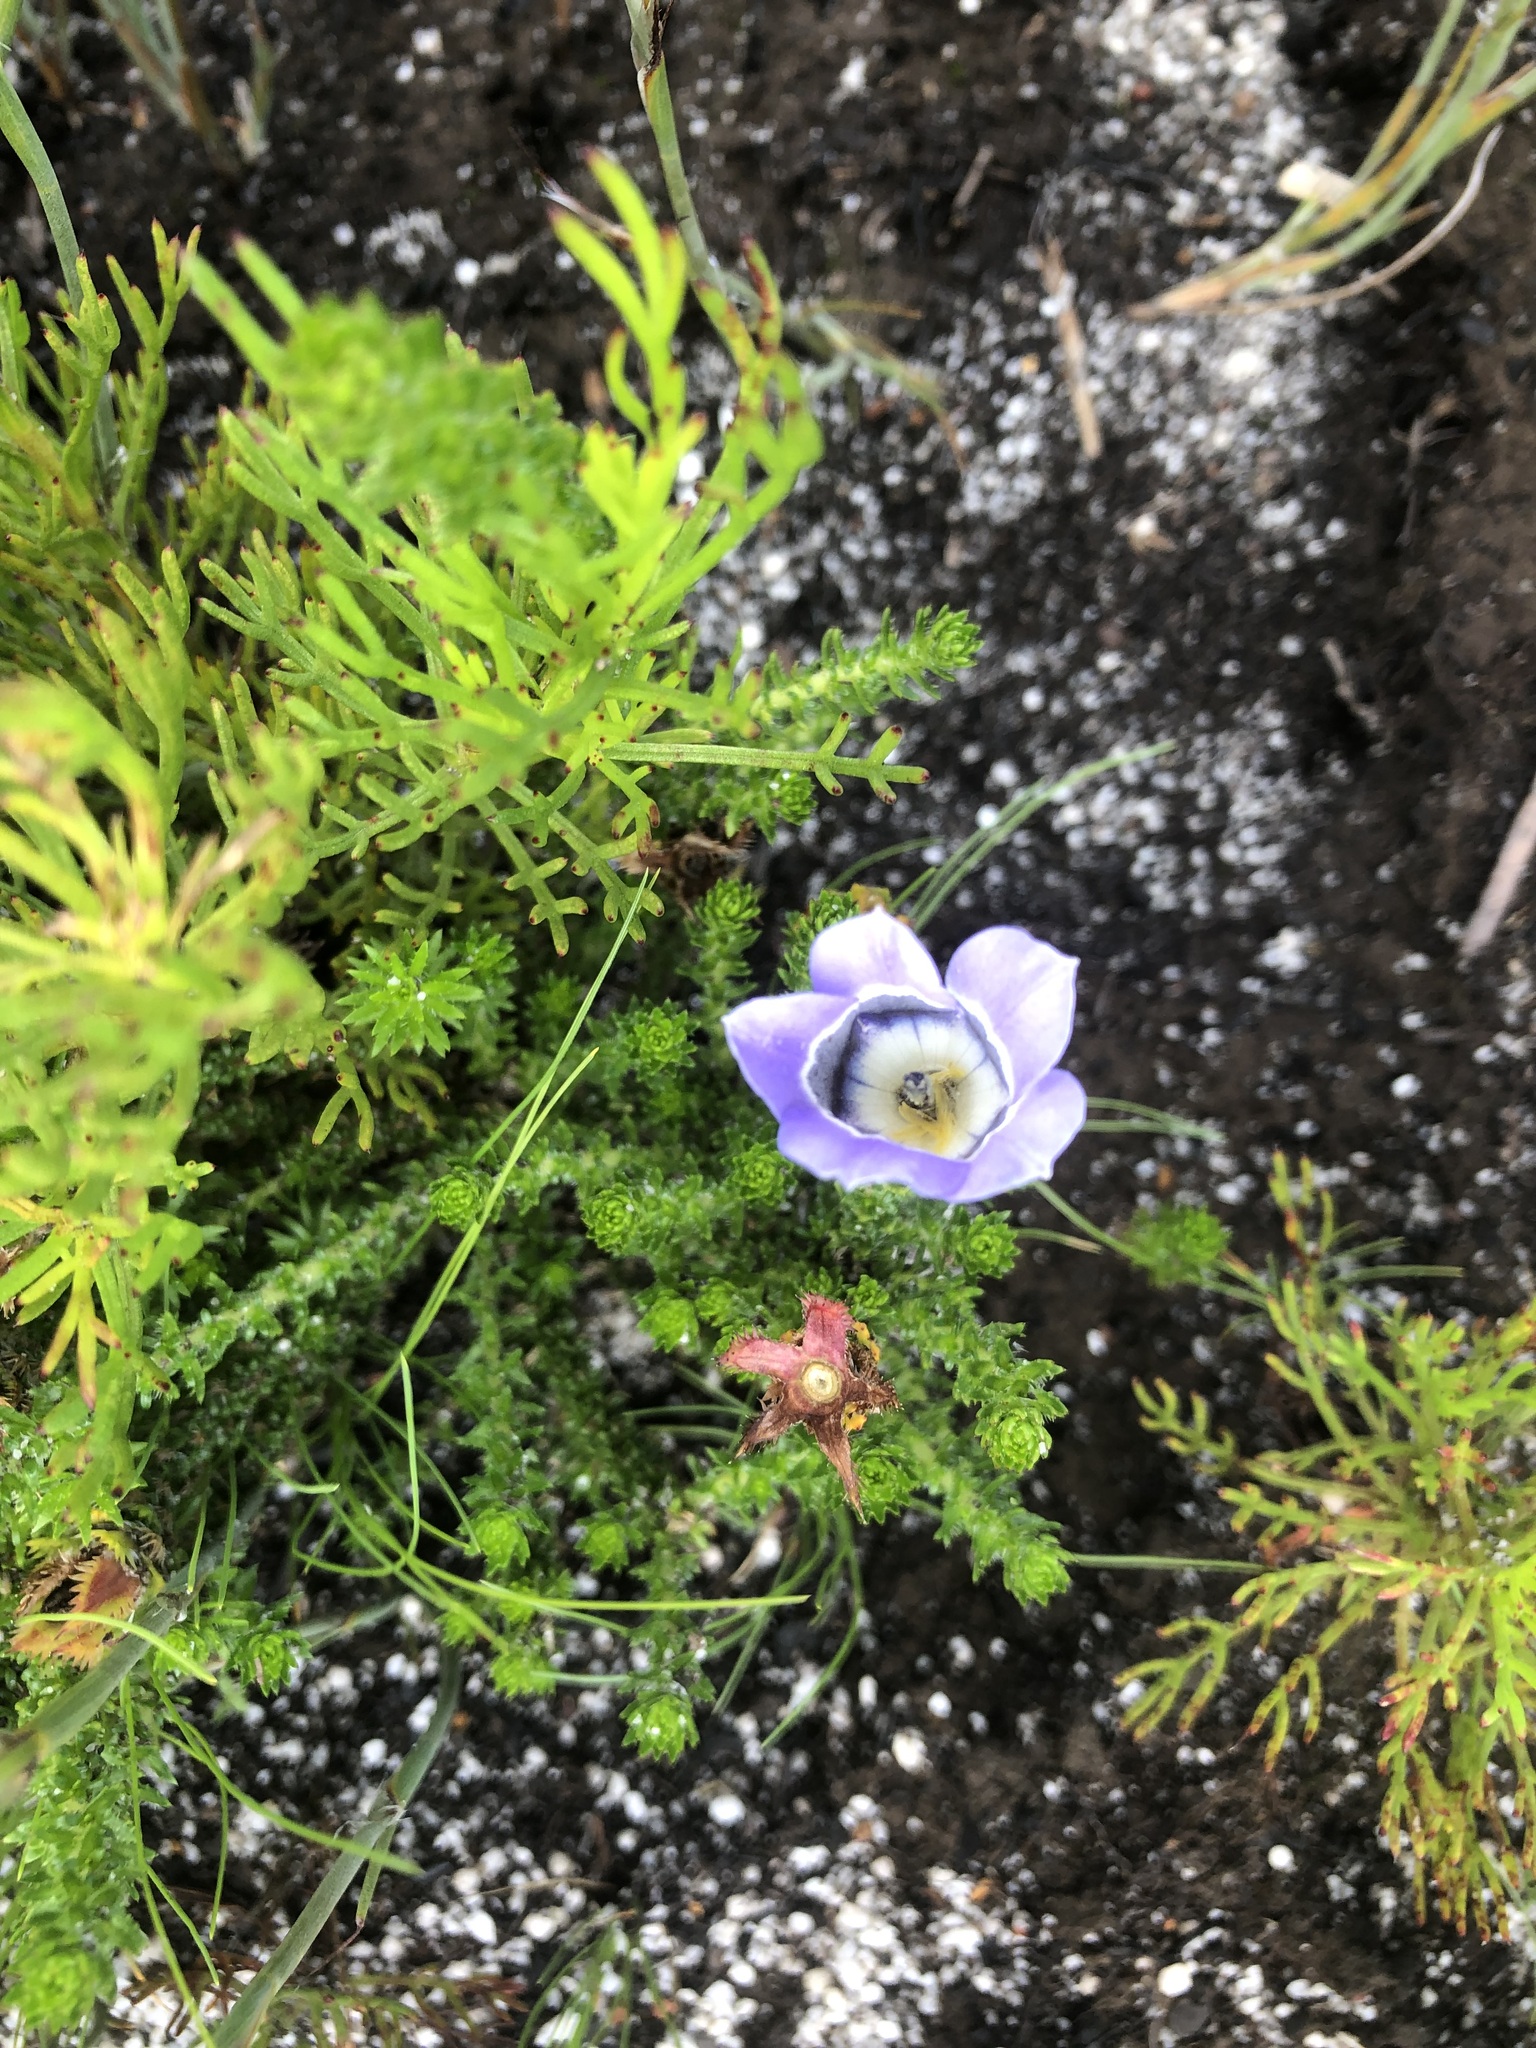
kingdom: Plantae
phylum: Tracheophyta
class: Magnoliopsida
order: Asterales
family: Campanulaceae
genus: Roella
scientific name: Roella ciliata
